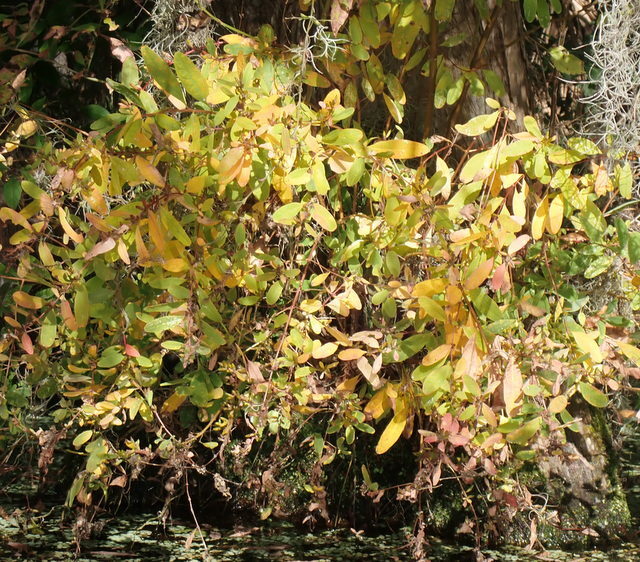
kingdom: Plantae
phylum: Tracheophyta
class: Magnoliopsida
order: Malpighiales
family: Hypericaceae
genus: Triadenum
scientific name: Triadenum walteri
